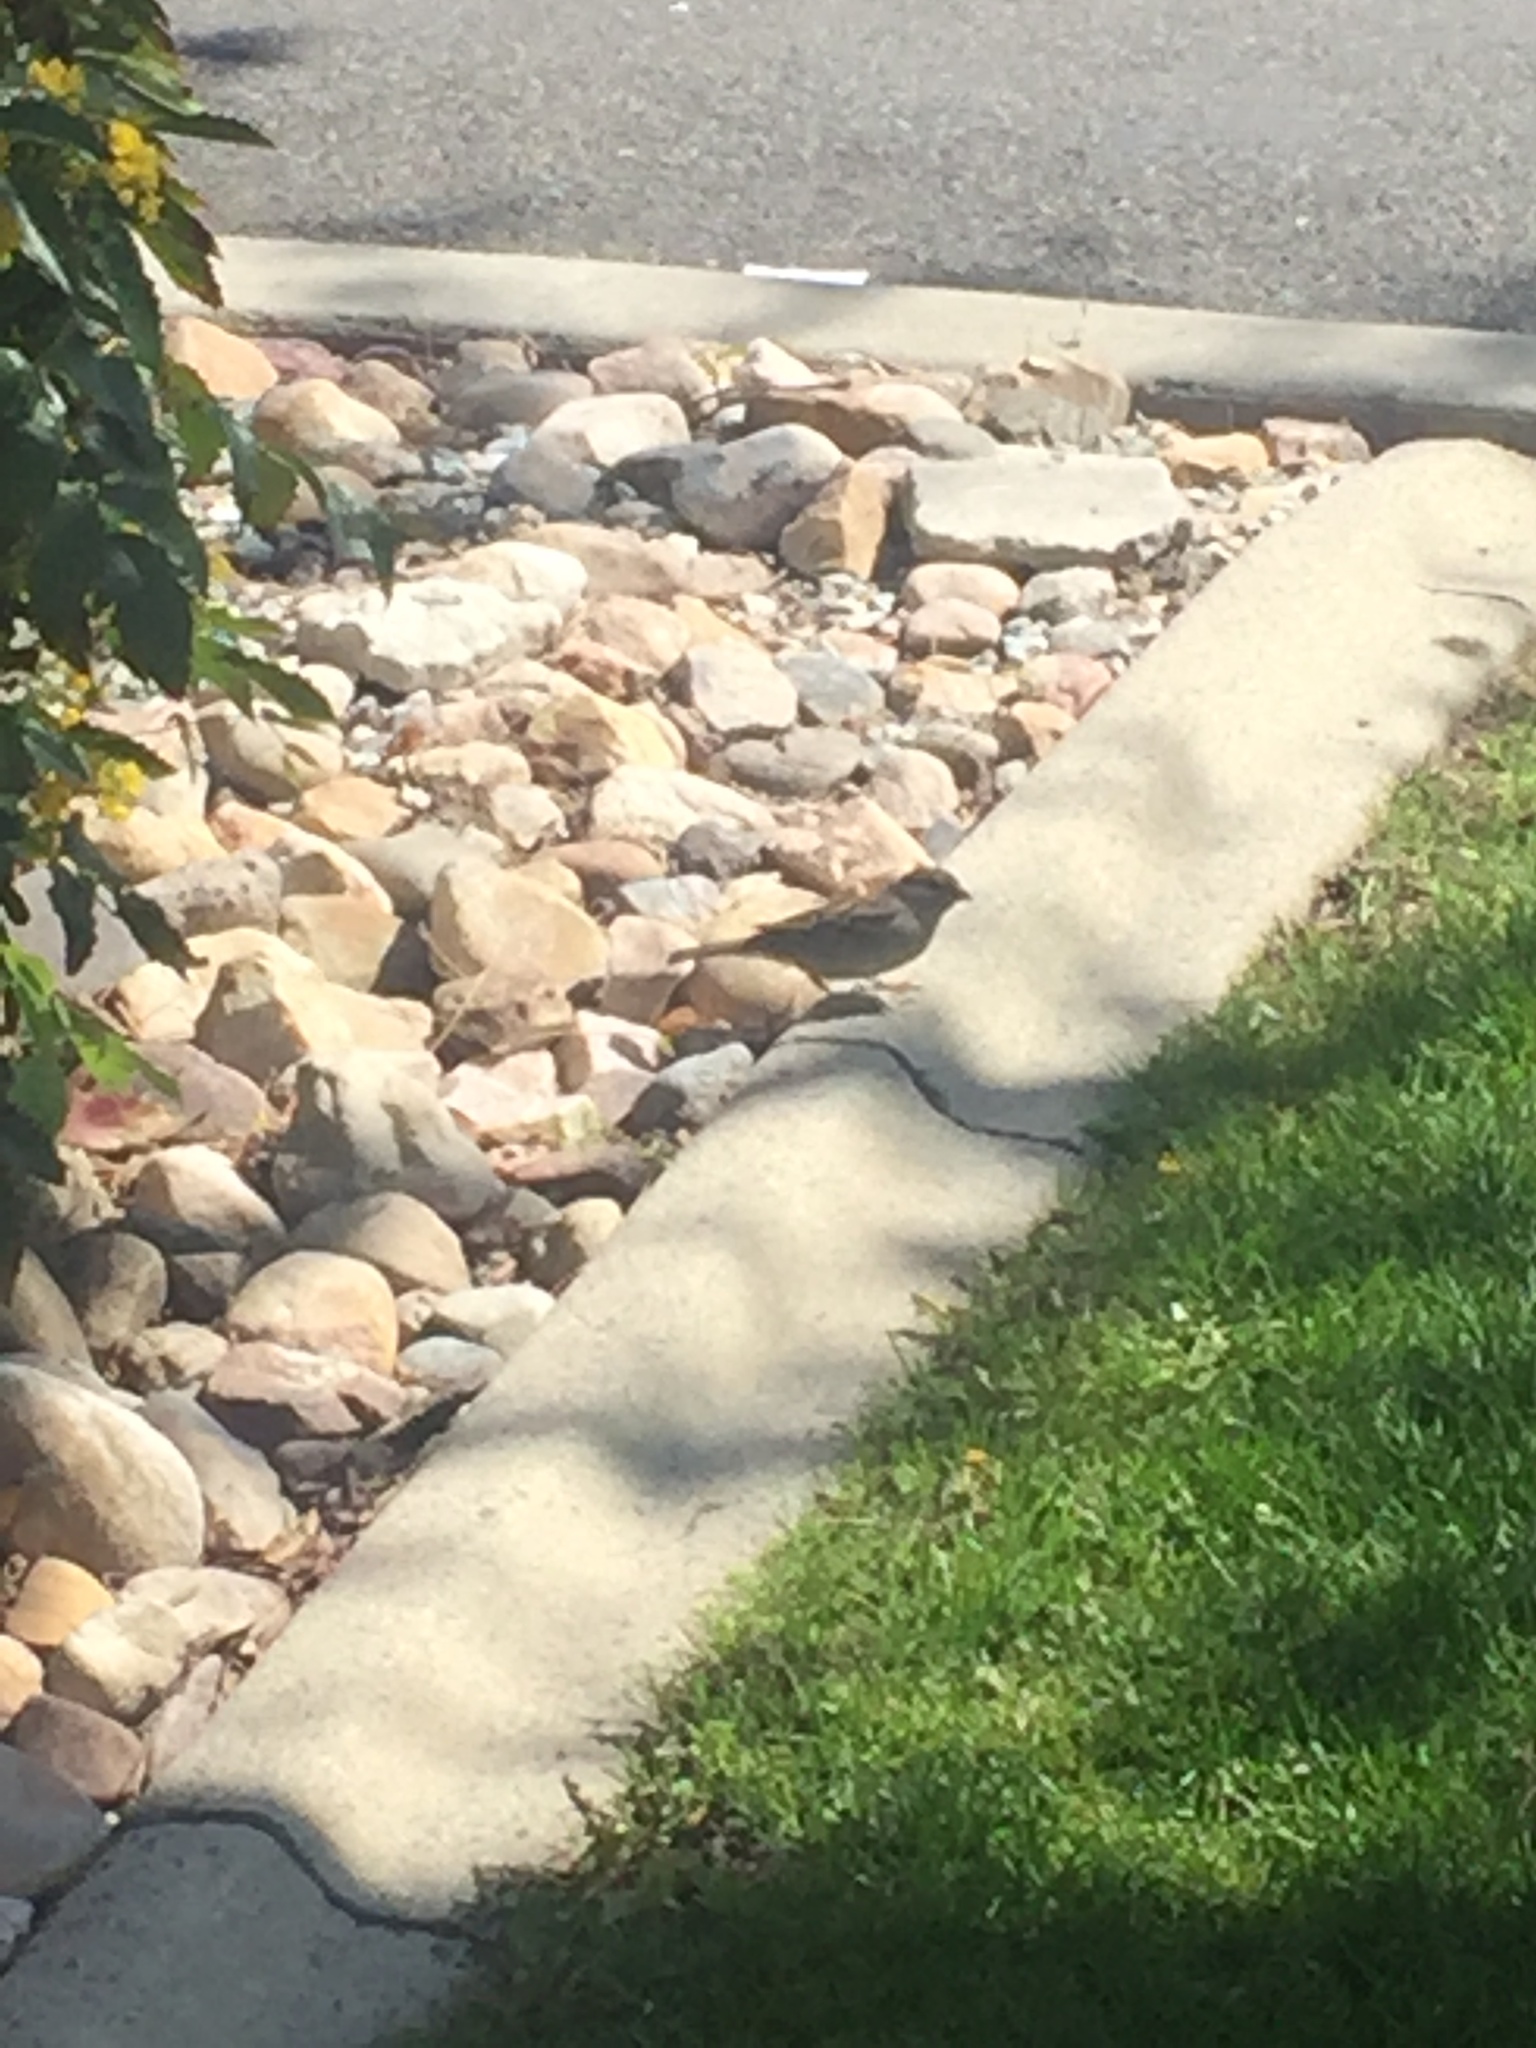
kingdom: Animalia
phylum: Chordata
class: Aves
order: Passeriformes
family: Passeridae
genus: Passer
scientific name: Passer domesticus
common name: House sparrow
